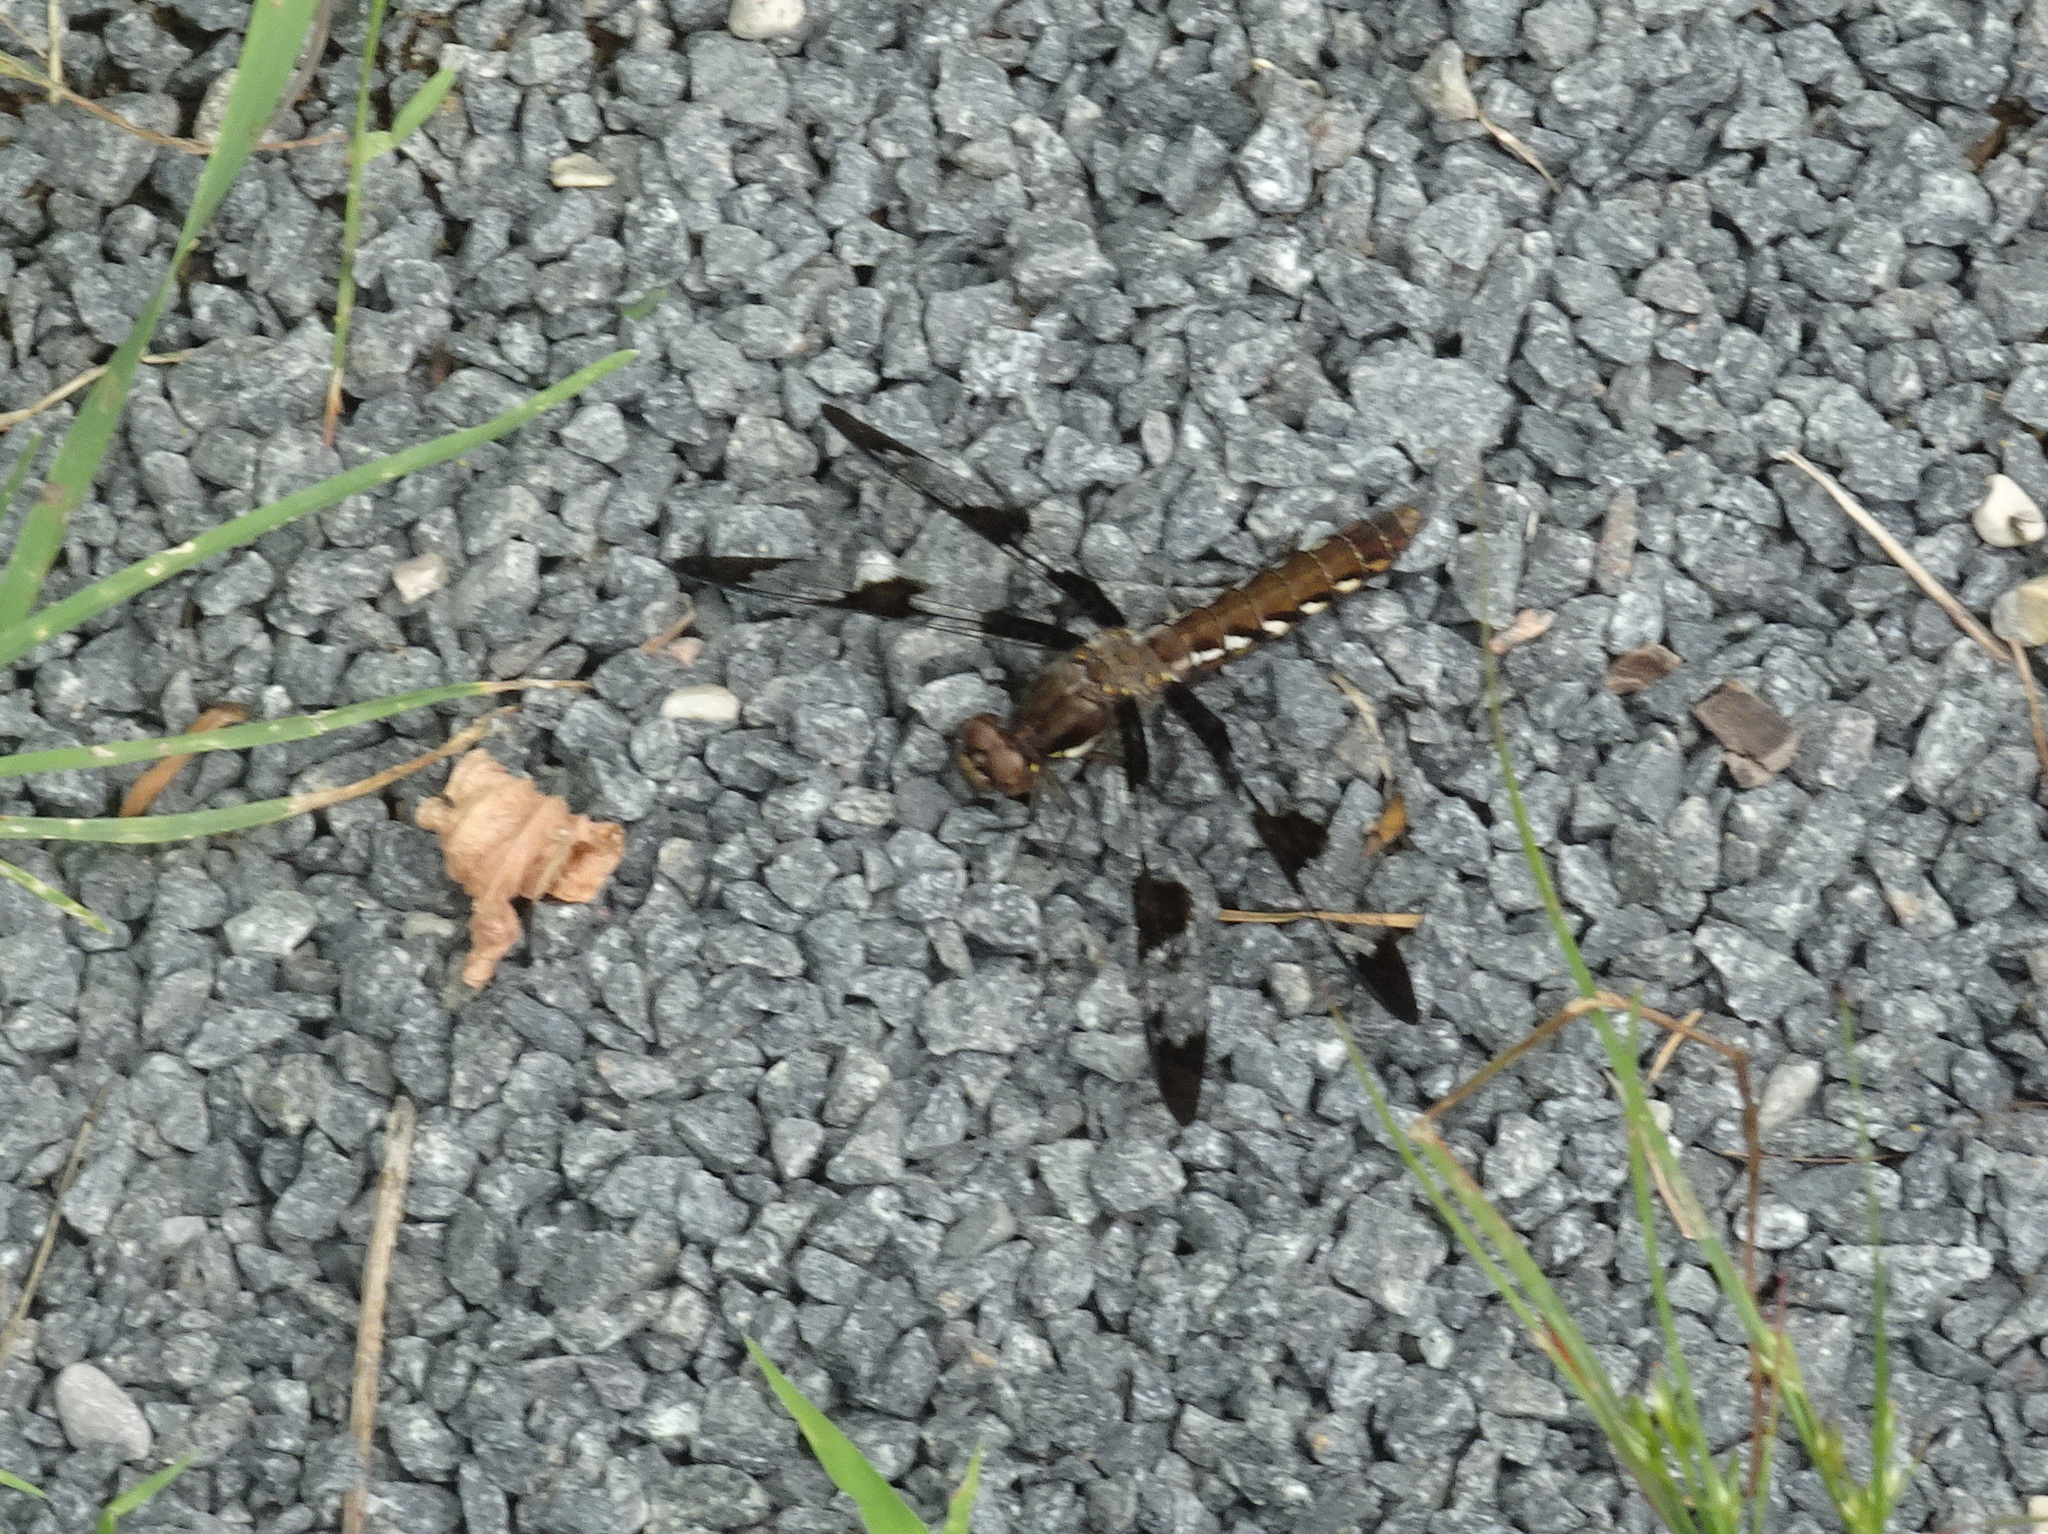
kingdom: Animalia
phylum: Arthropoda
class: Insecta
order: Odonata
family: Libellulidae
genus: Plathemis
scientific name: Plathemis lydia
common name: Common whitetail
